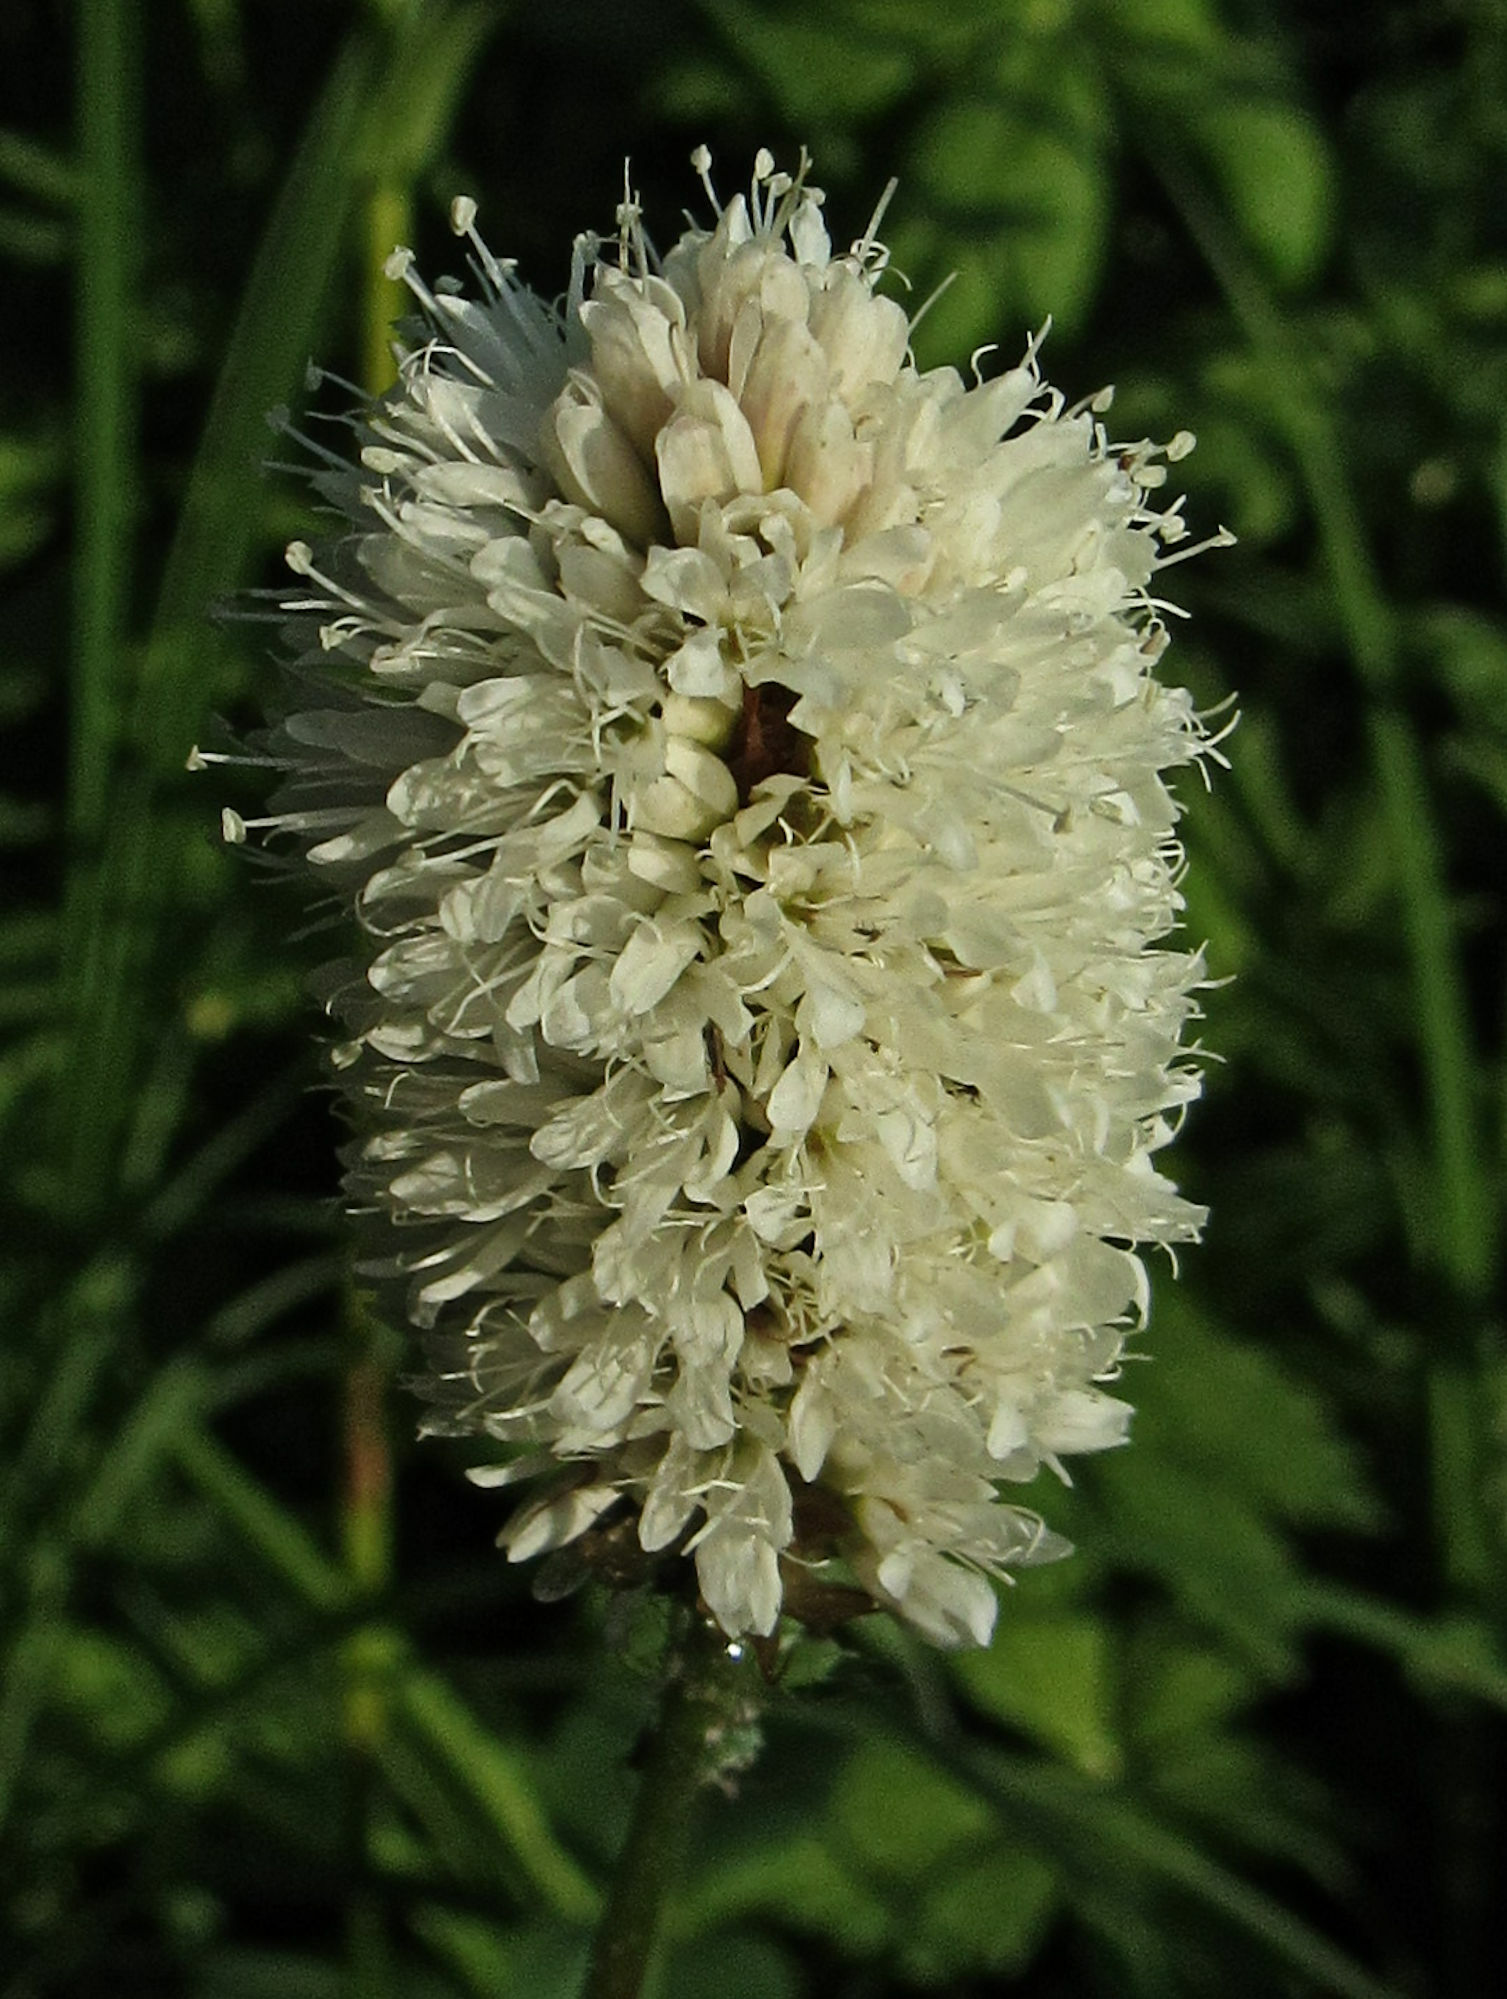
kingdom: Plantae
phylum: Tracheophyta
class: Magnoliopsida
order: Caryophyllales
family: Polygonaceae
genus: Bistorta
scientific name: Bistorta bistortoides
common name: American bistort
